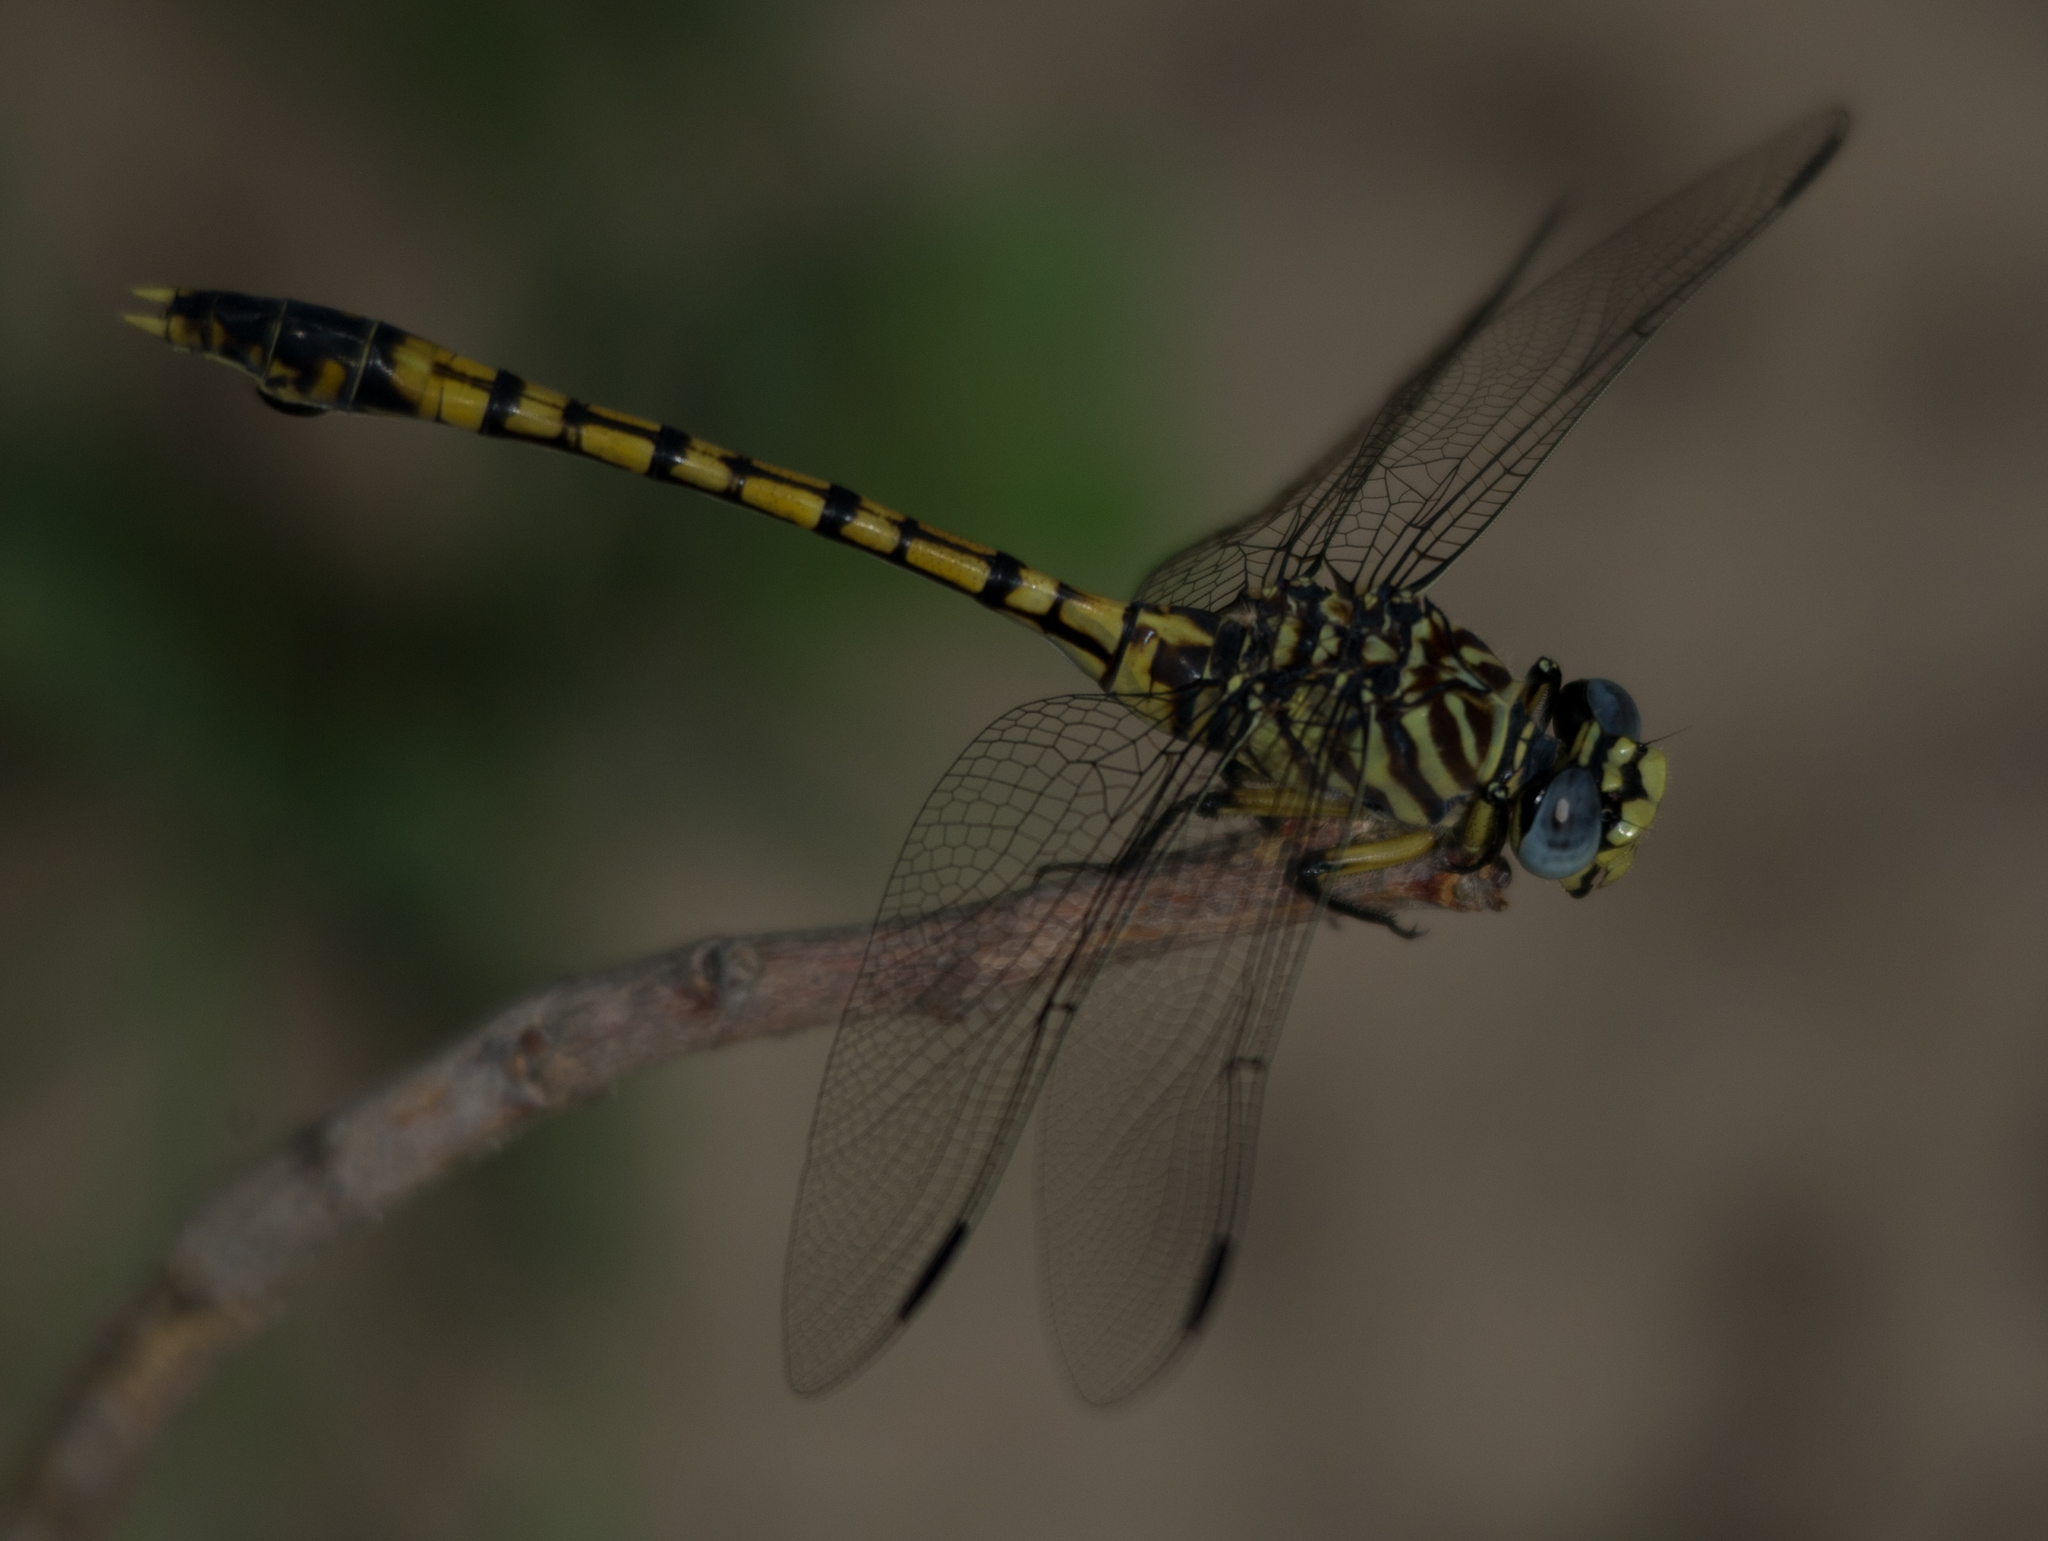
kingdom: Animalia
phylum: Arthropoda
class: Insecta
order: Odonata
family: Gomphidae
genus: Ictinogomphus
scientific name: Ictinogomphus dundoensis
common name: Swamp tigertail
